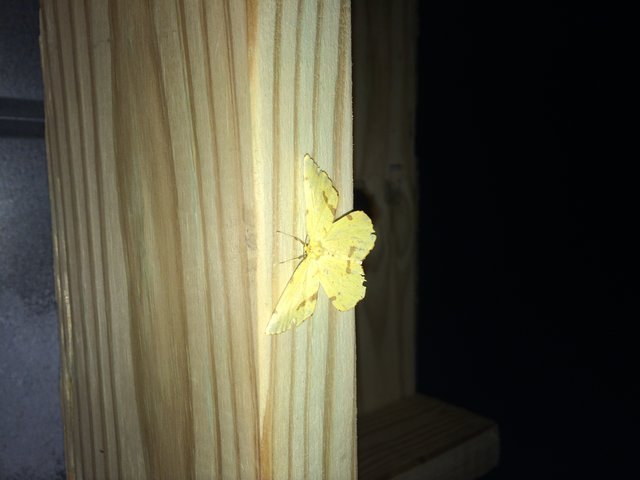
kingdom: Animalia
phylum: Arthropoda
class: Insecta
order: Lepidoptera
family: Geometridae
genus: Xanthotype
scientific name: Xanthotype
